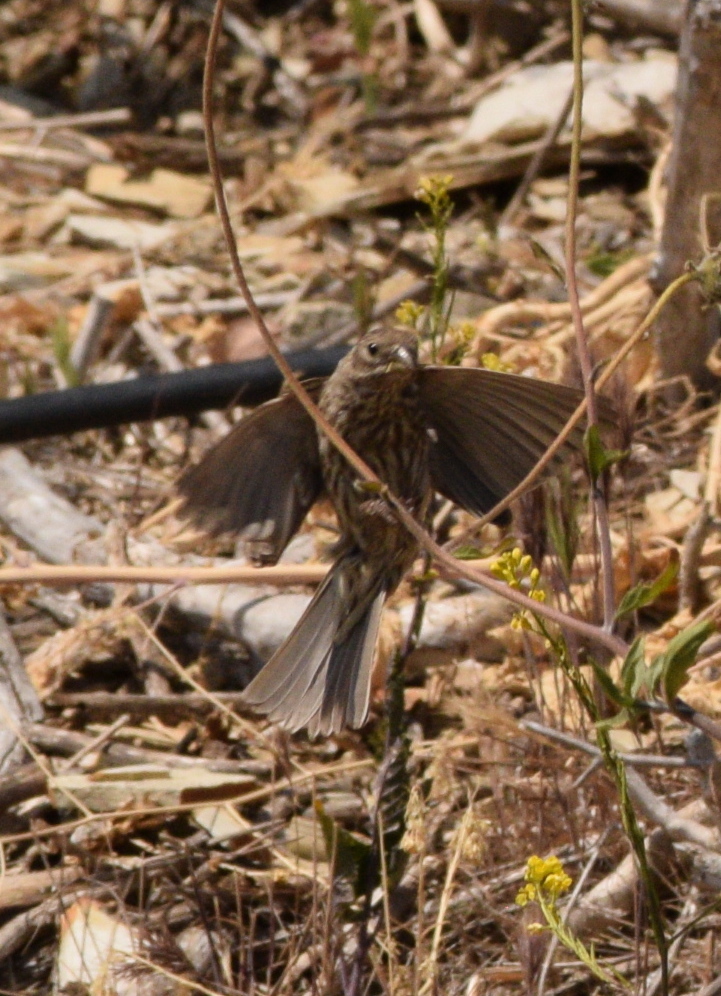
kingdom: Animalia
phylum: Chordata
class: Aves
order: Passeriformes
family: Fringillidae
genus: Haemorhous
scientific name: Haemorhous mexicanus
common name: House finch
